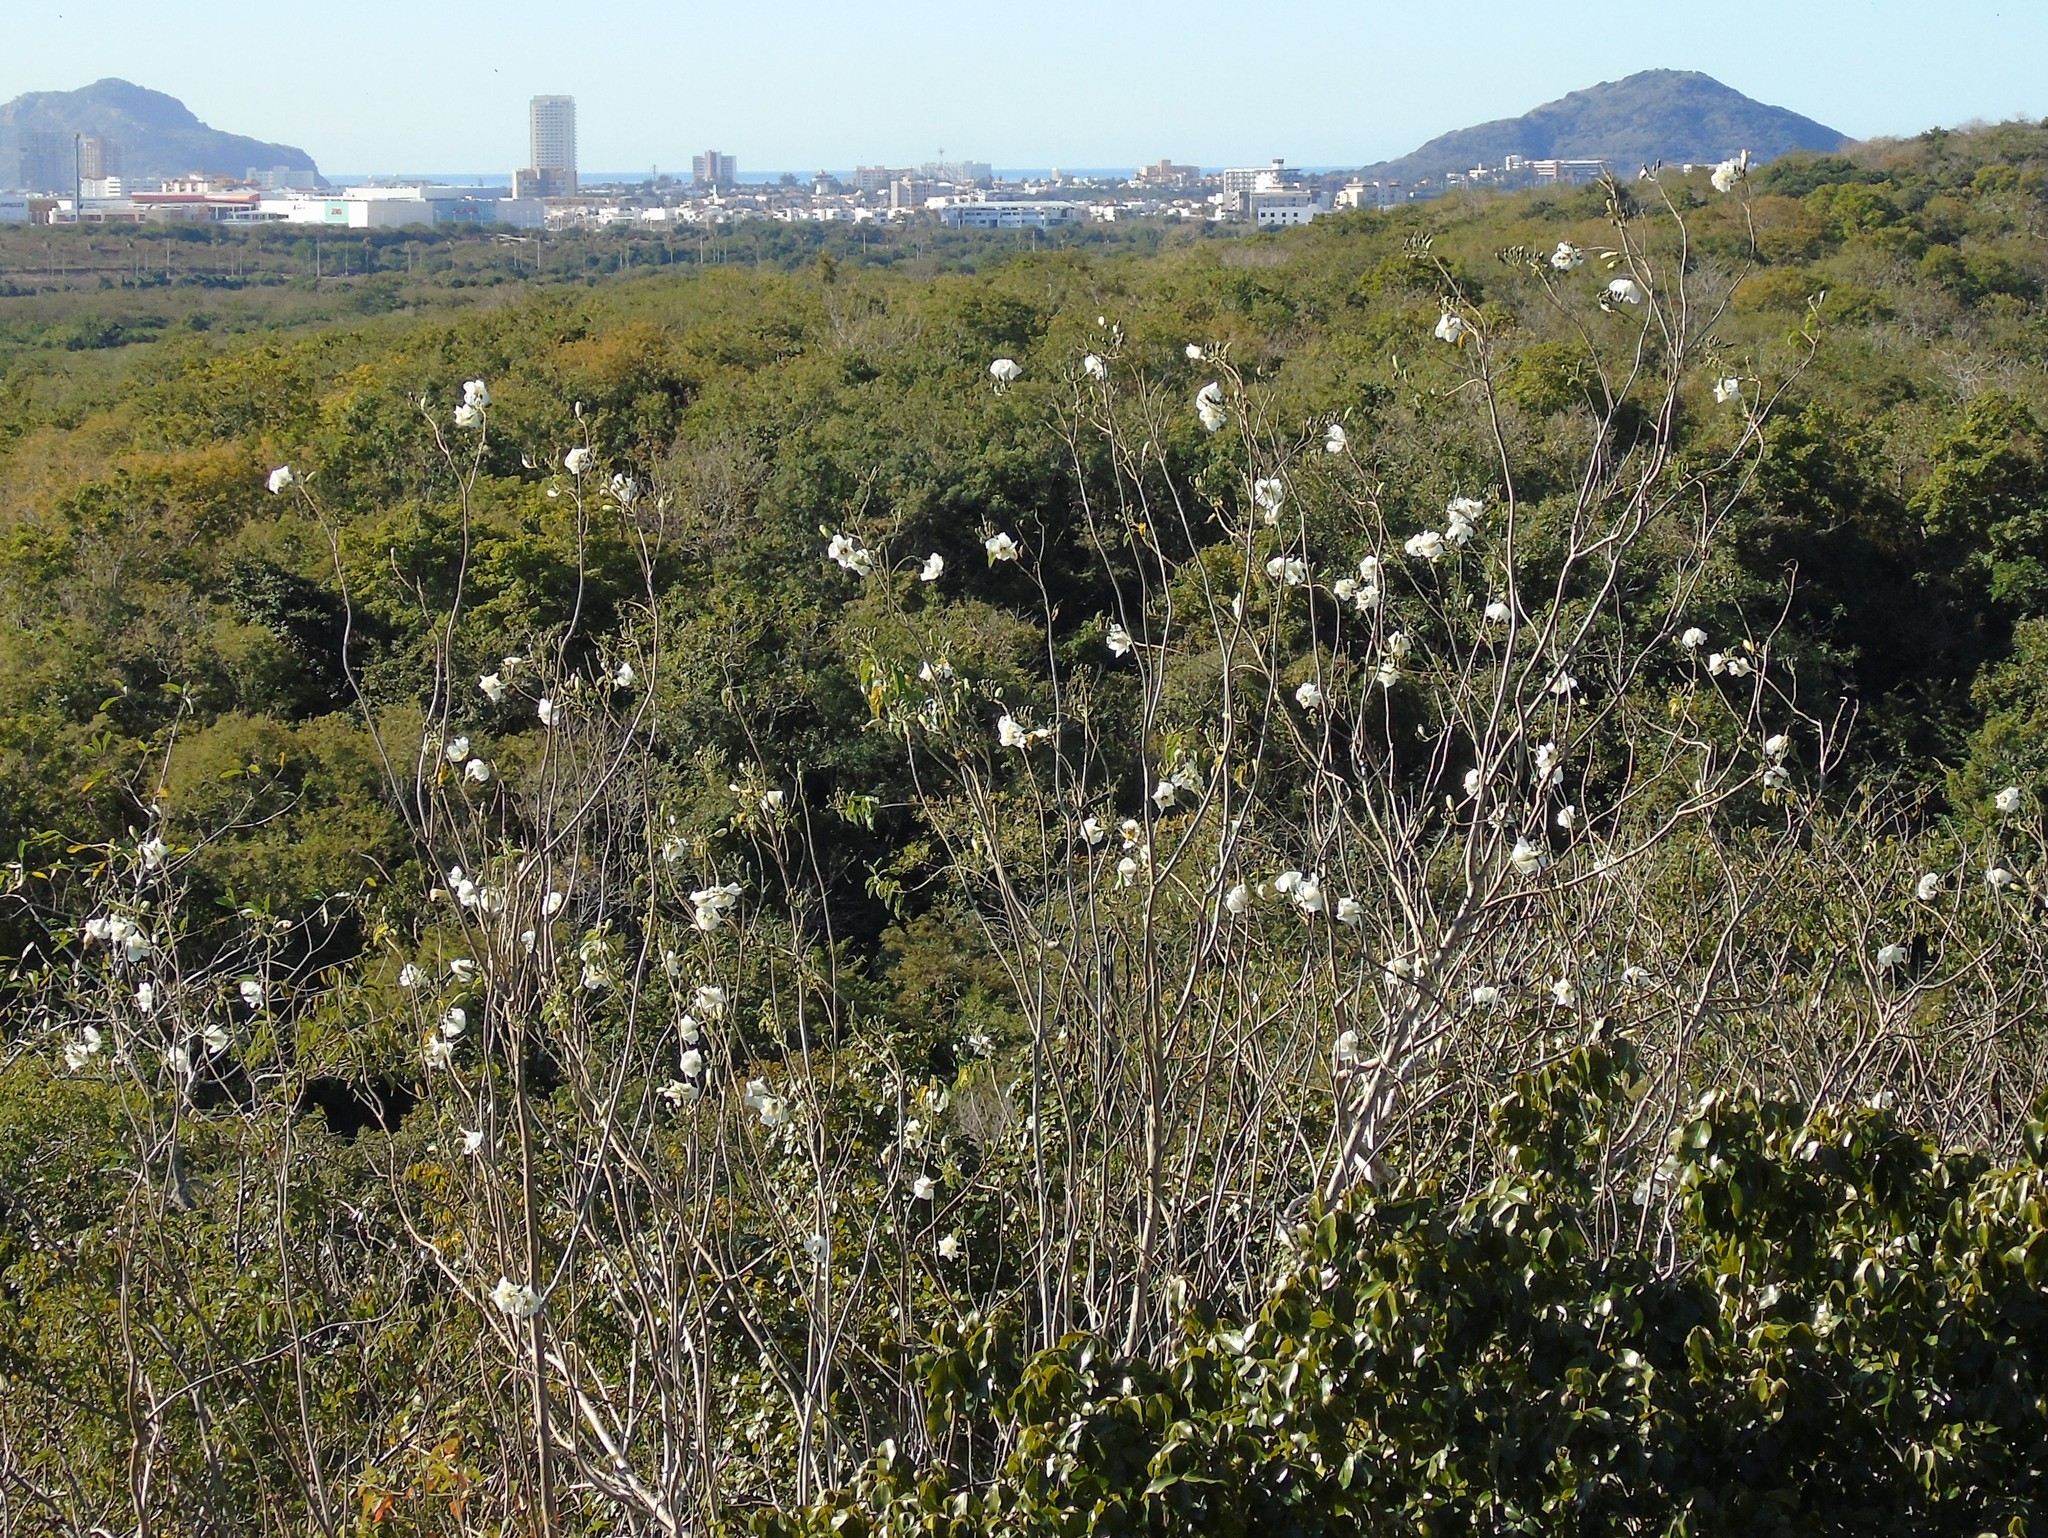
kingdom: Plantae
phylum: Tracheophyta
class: Magnoliopsida
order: Solanales
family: Convolvulaceae
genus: Ipomoea
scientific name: Ipomoea arborescens
